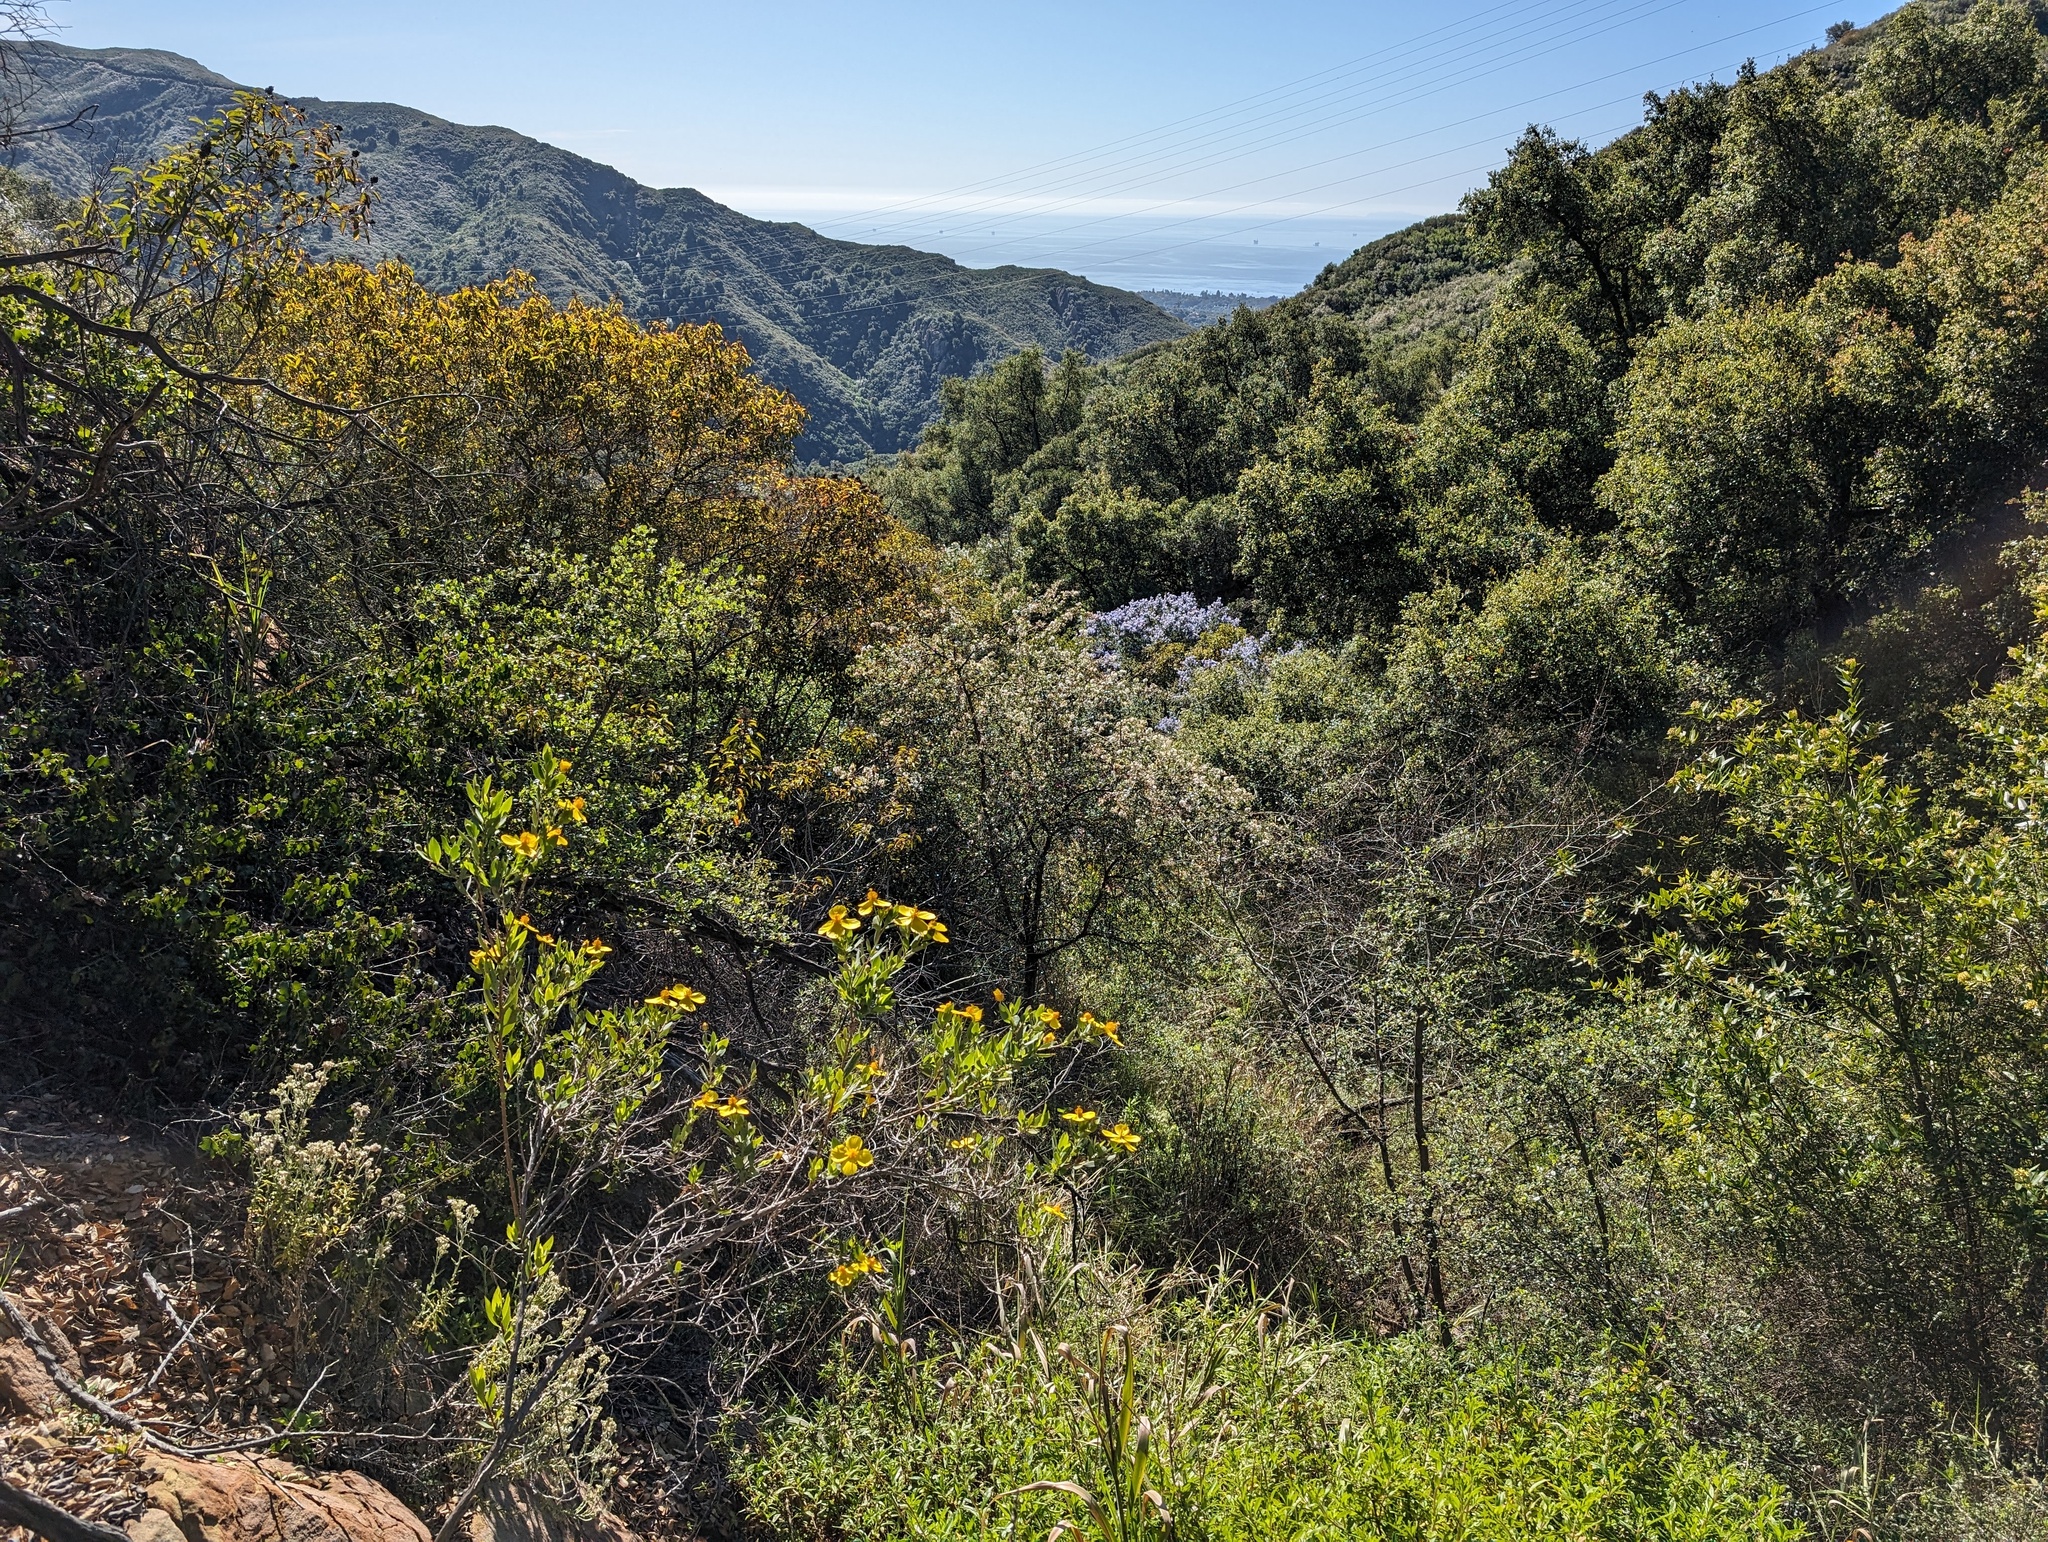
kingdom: Plantae
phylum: Tracheophyta
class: Magnoliopsida
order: Ranunculales
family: Papaveraceae
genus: Dendromecon
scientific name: Dendromecon rigida
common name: Tree poppy
